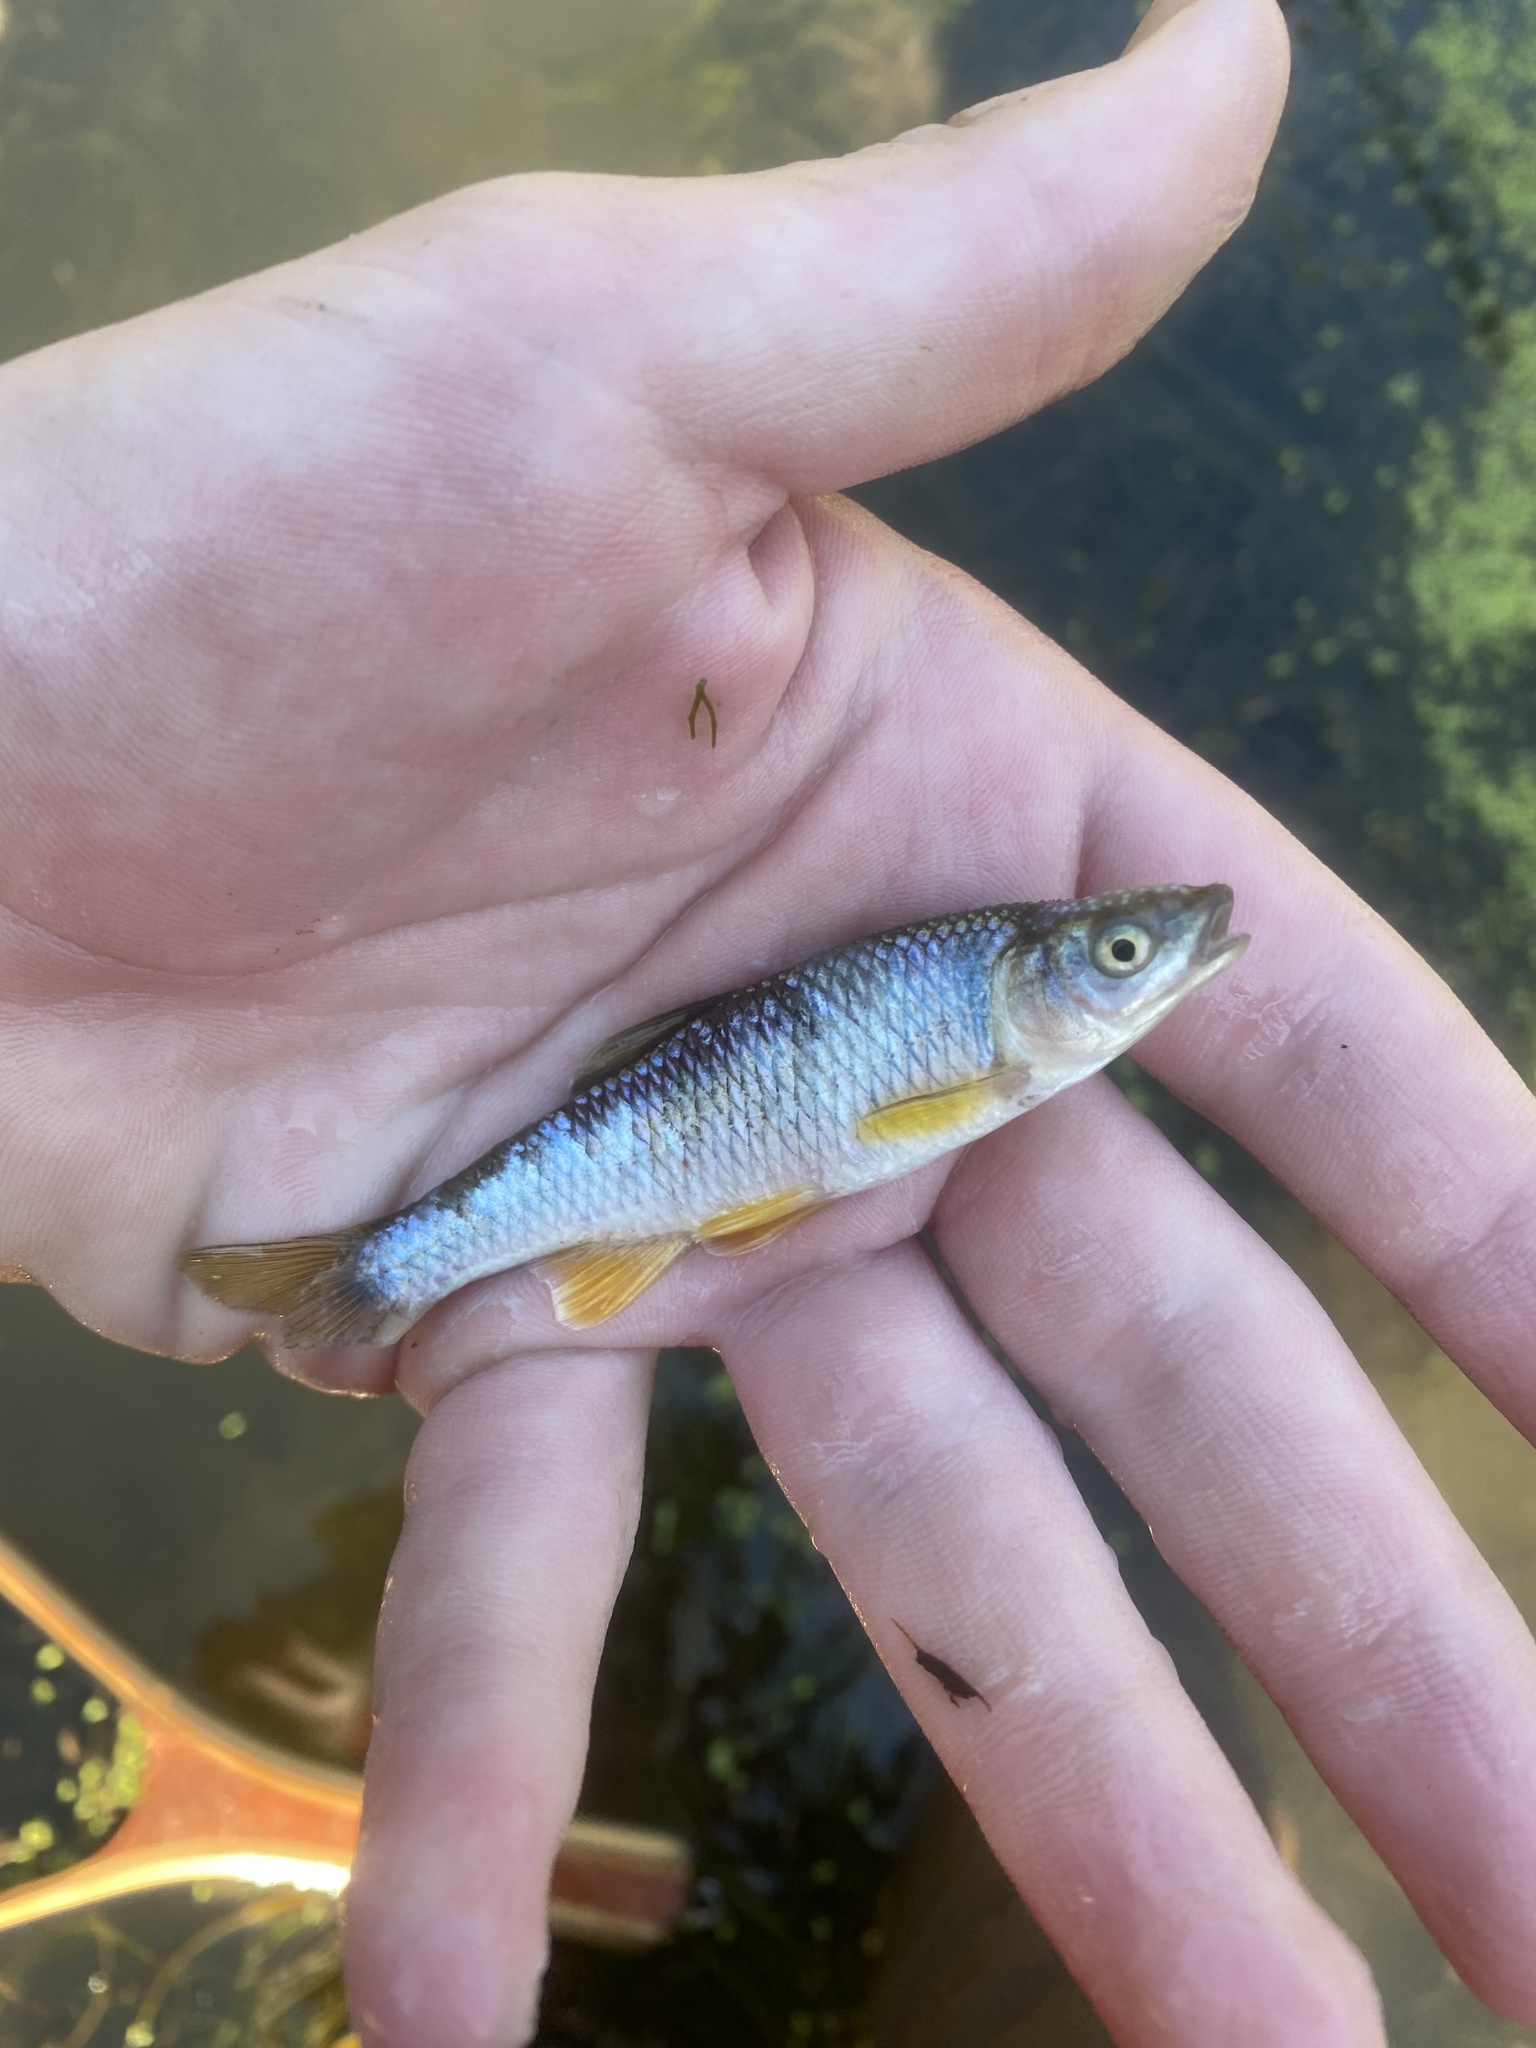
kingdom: Animalia
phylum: Chordata
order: Cypriniformes
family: Cyprinidae
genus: Cyprinella
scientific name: Cyprinella spiloptera
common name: Spotfin shiner
